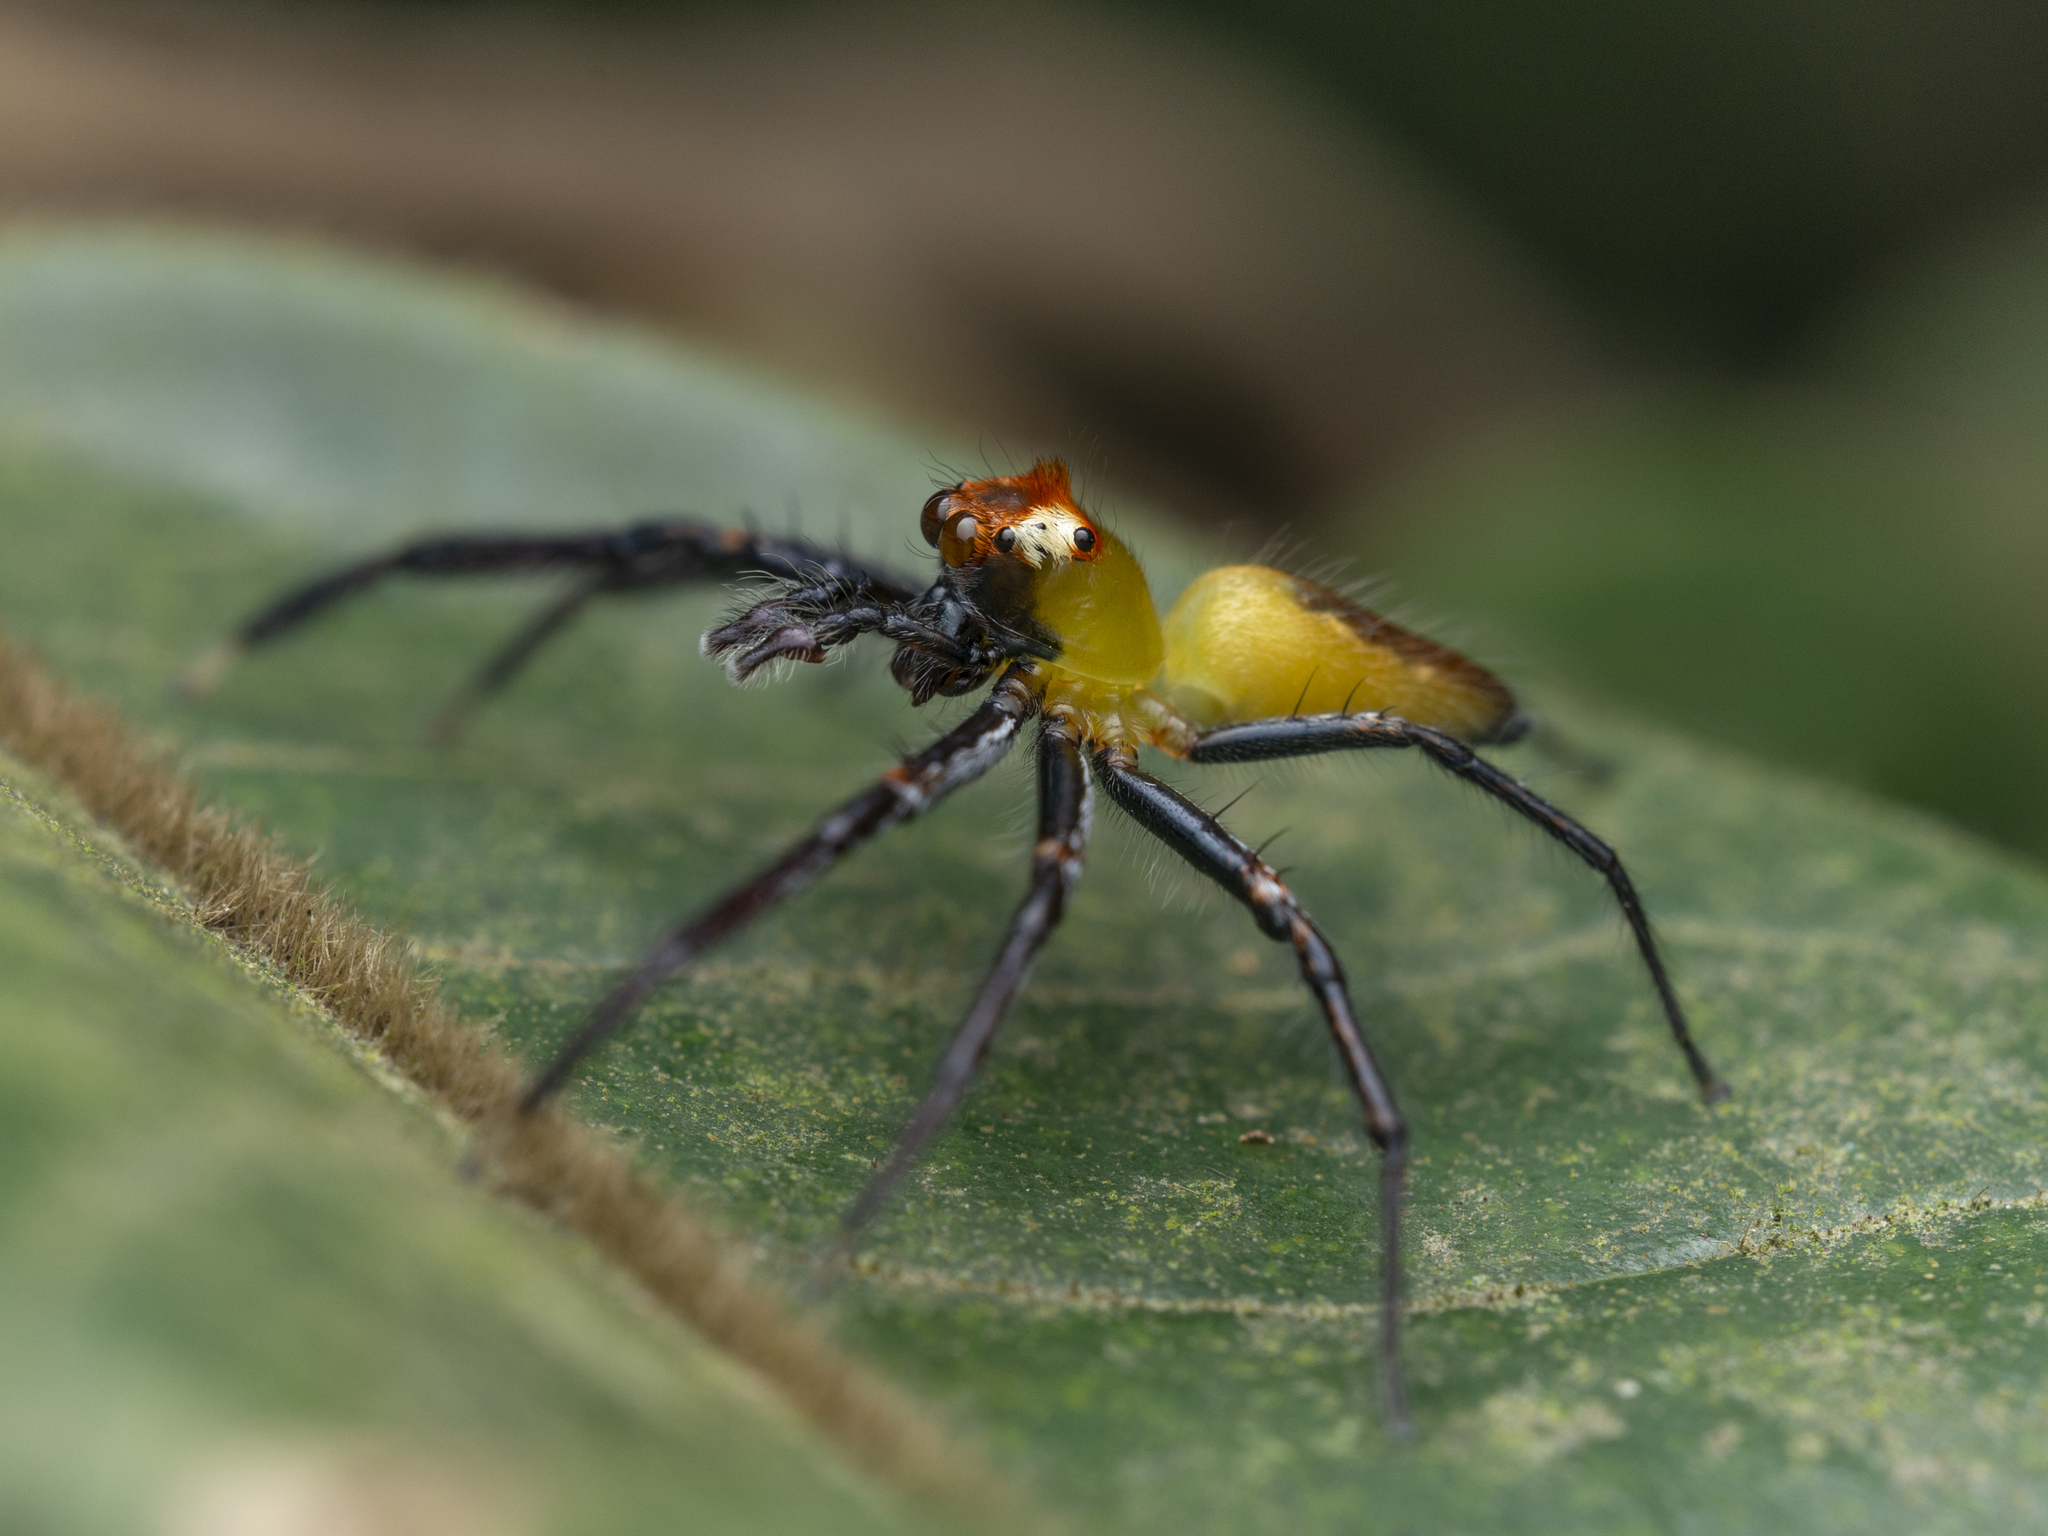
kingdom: Animalia
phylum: Arthropoda
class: Arachnida
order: Araneae
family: Salticidae
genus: Epeus
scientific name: Epeus glorius
